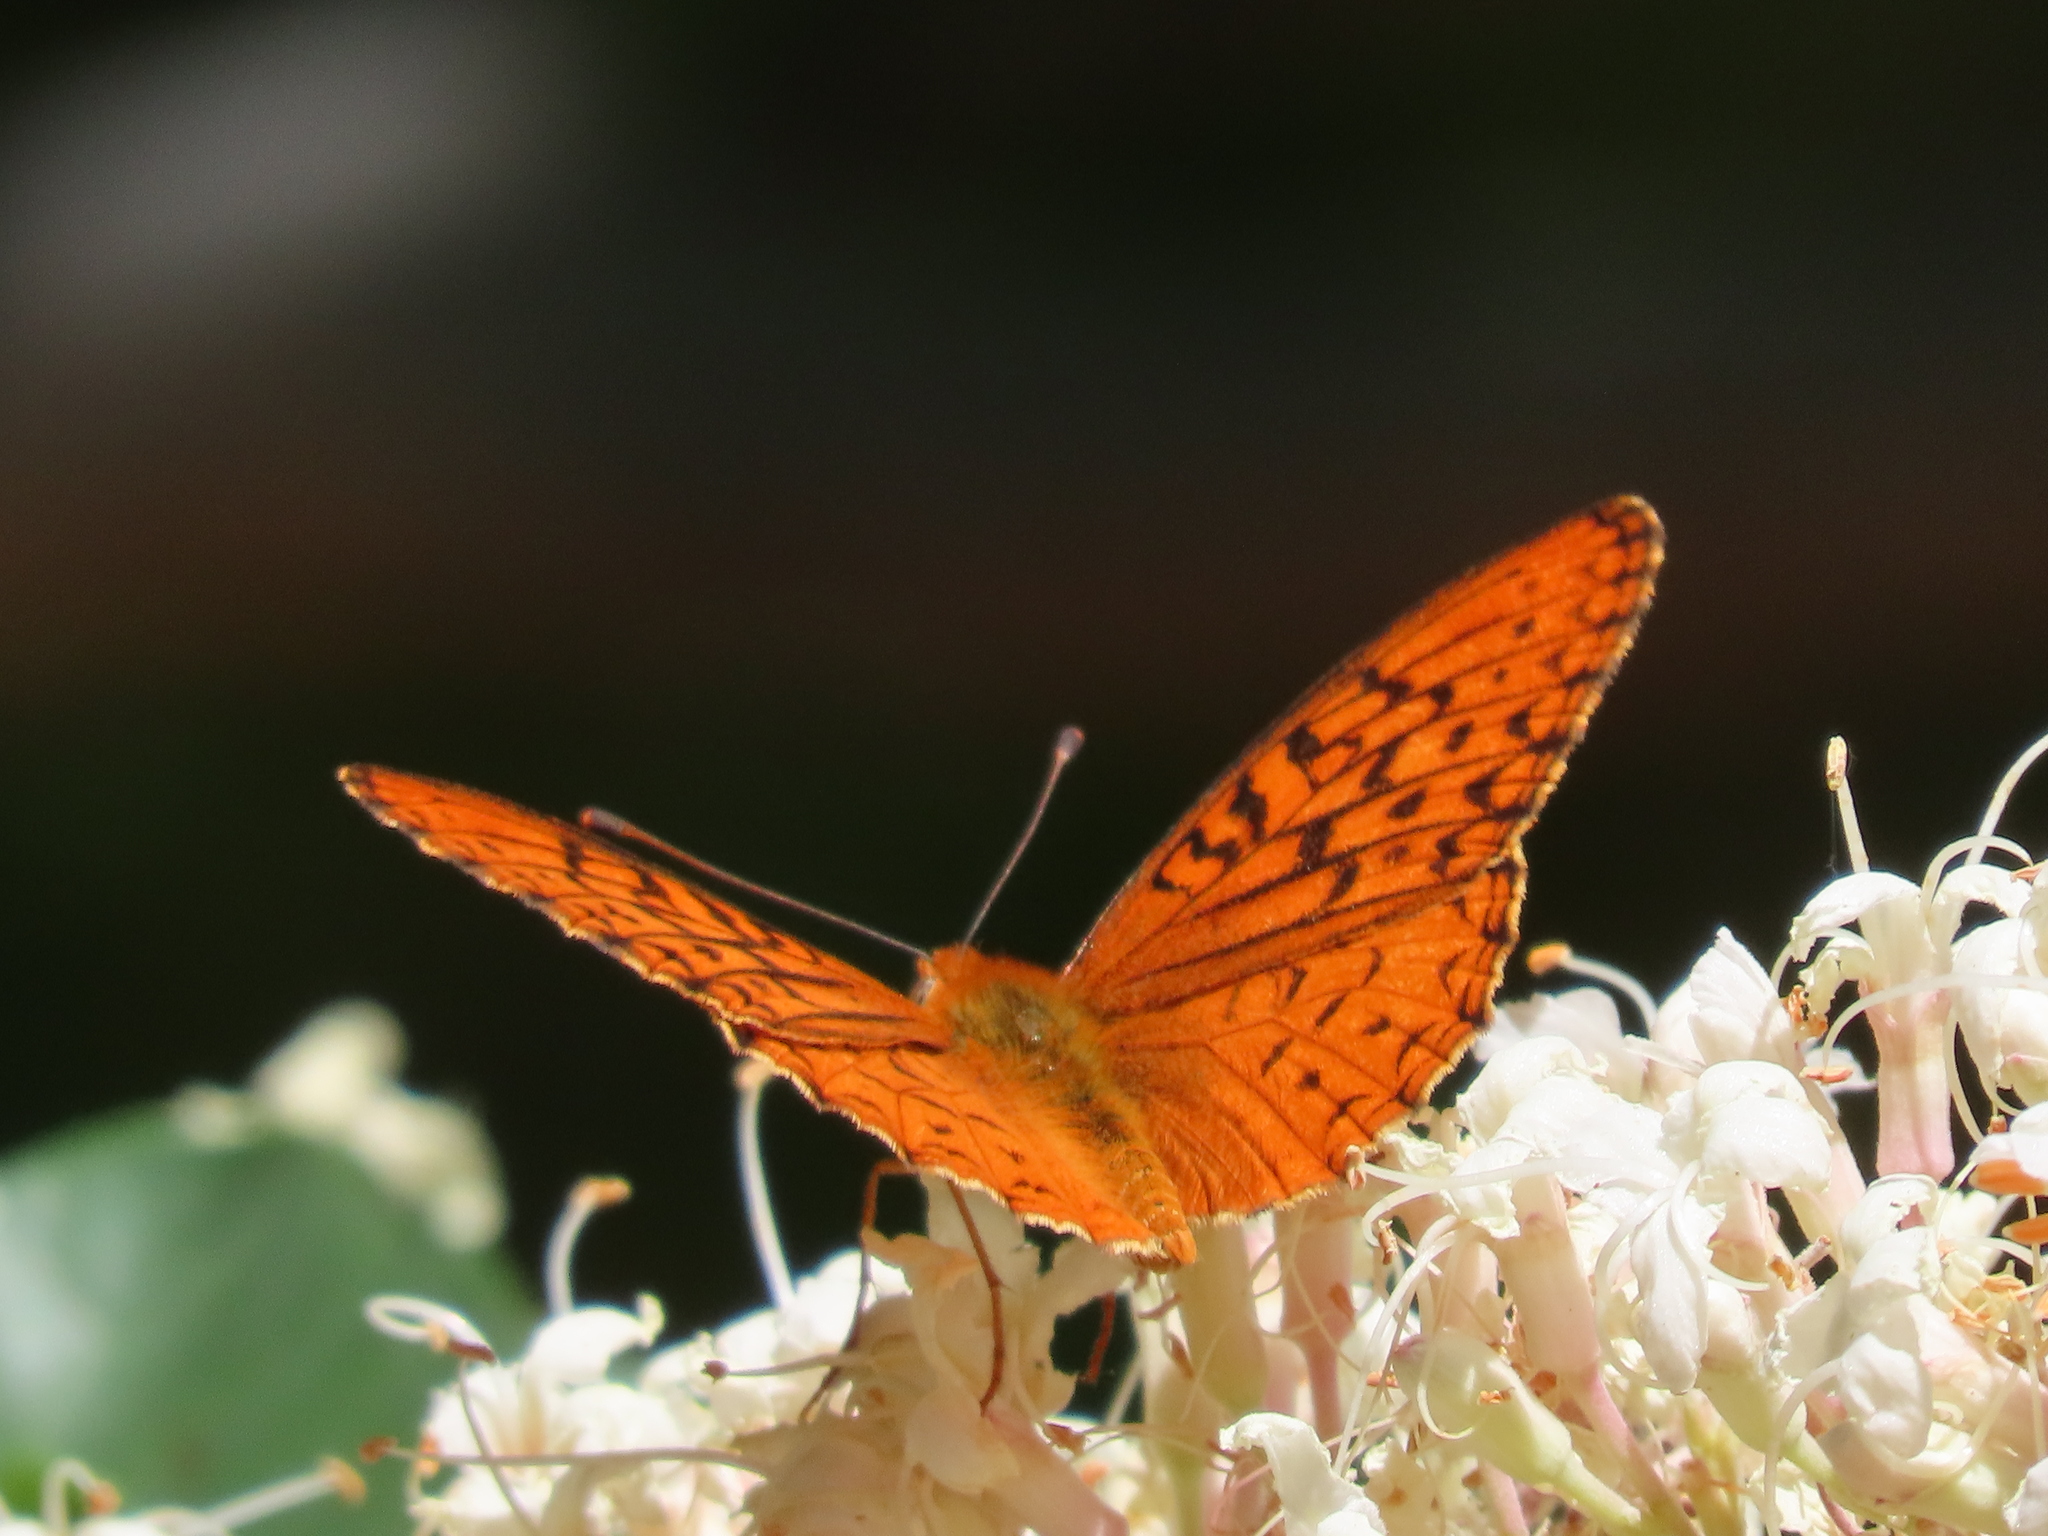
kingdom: Animalia
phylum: Arthropoda
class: Insecta
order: Lepidoptera
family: Nymphalidae
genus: Speyeria
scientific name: Speyeria adiaste
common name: Unsilvered fritillary
